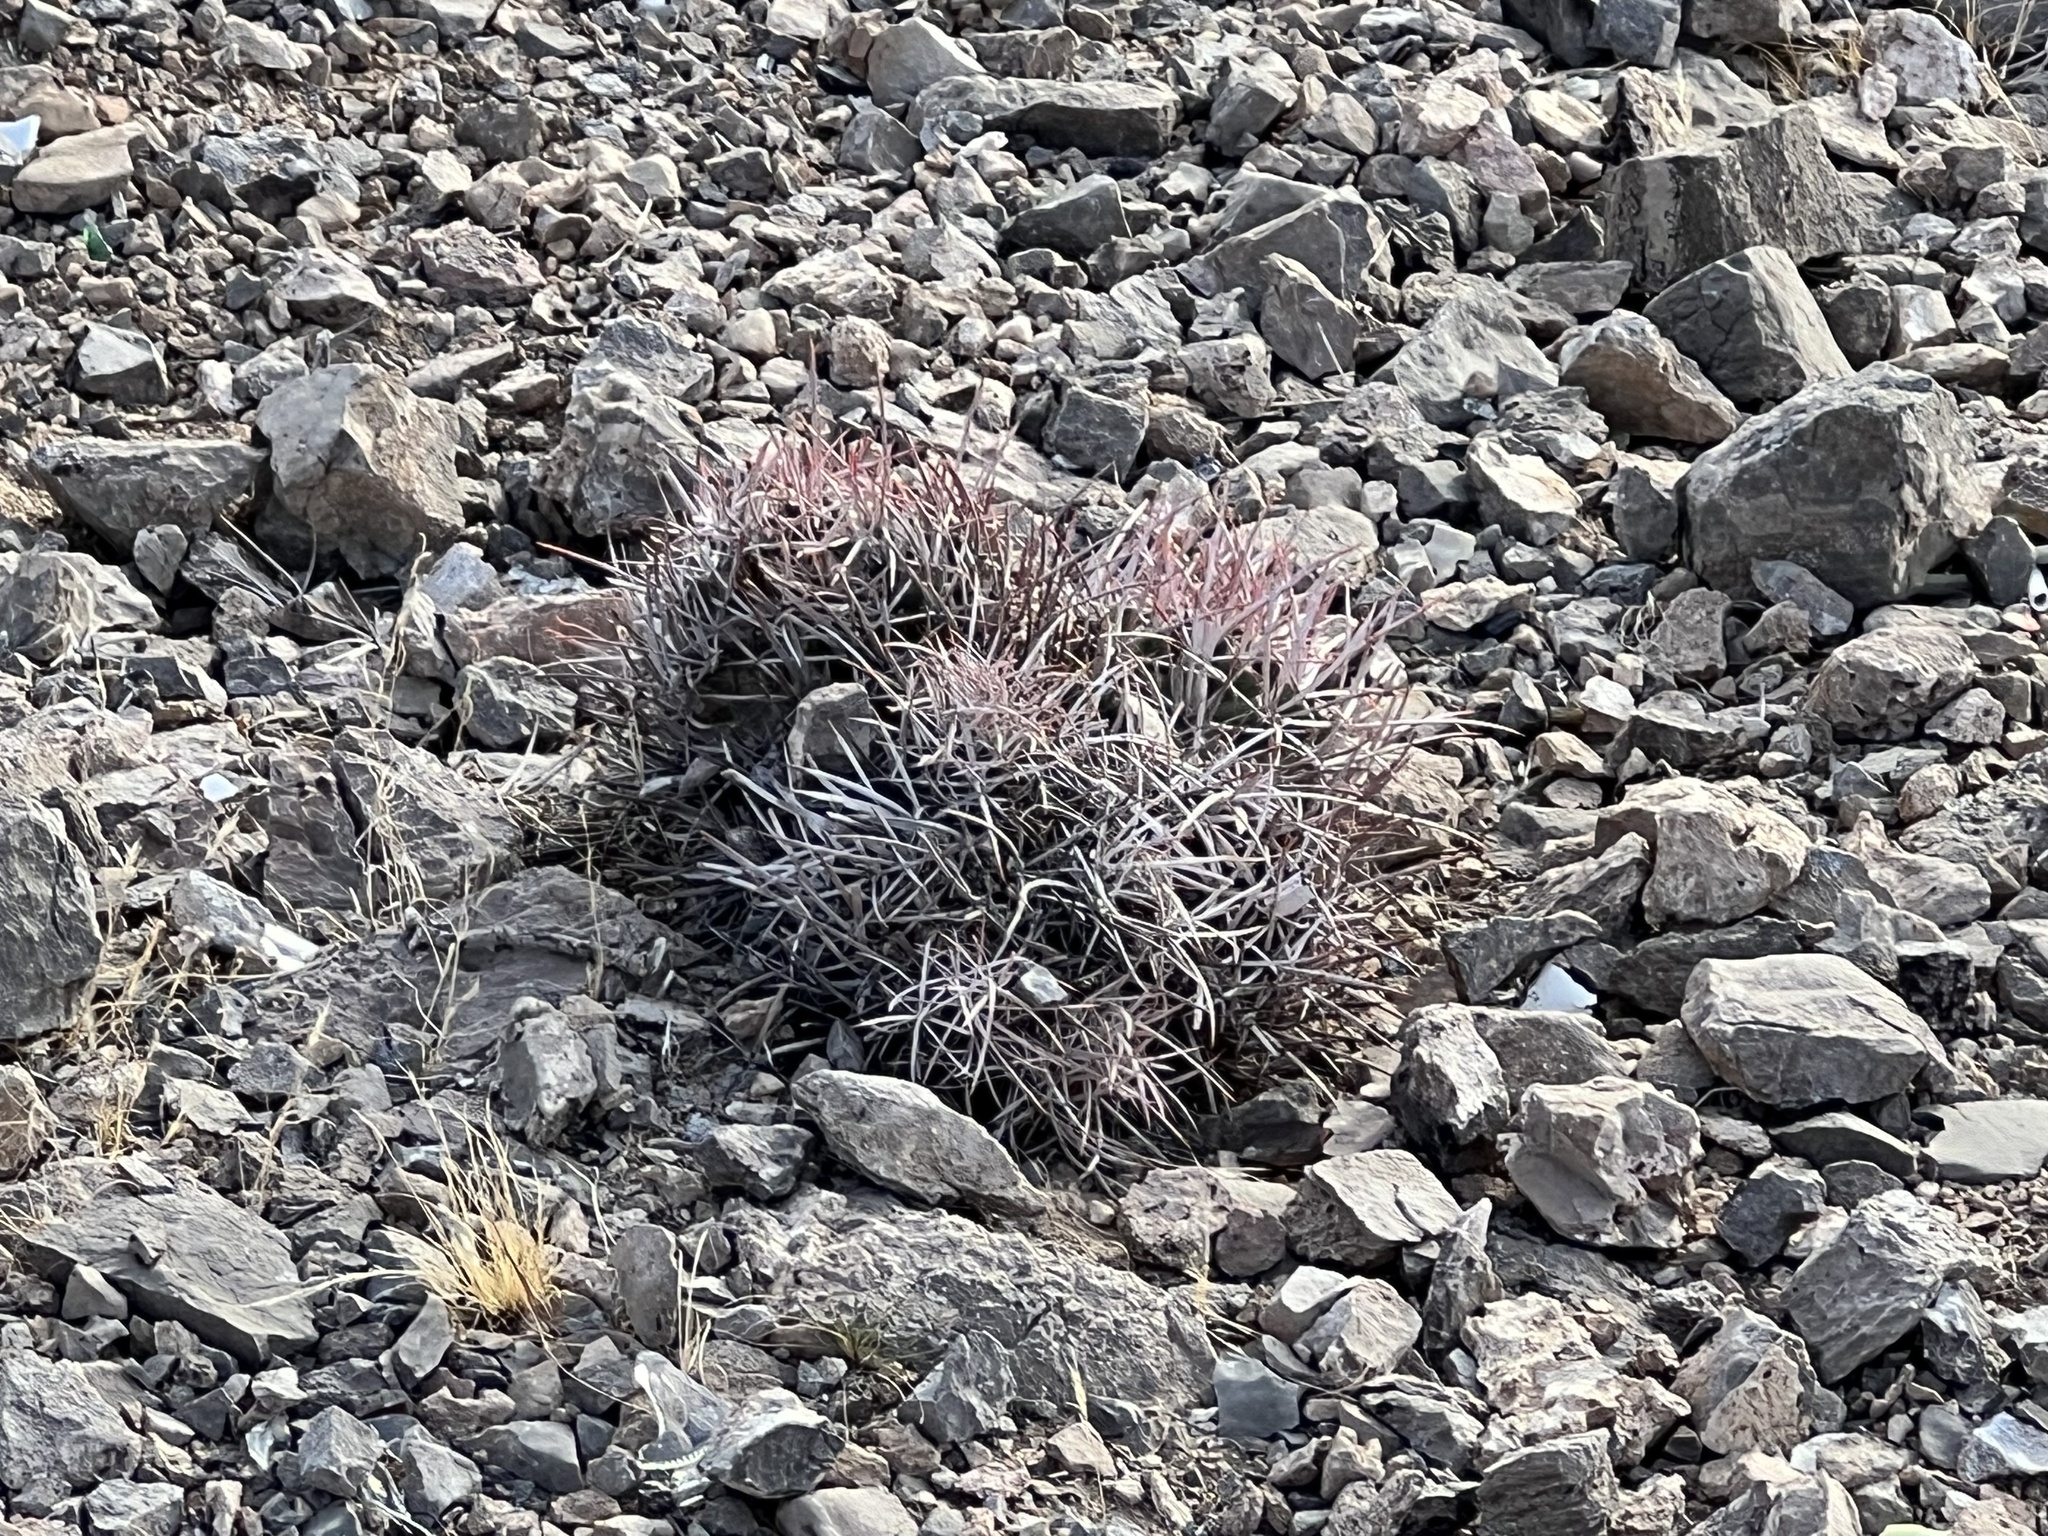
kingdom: Plantae
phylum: Tracheophyta
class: Magnoliopsida
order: Caryophyllales
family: Cactaceae
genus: Echinocactus
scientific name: Echinocactus polycephalus
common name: Cottontop cactus
